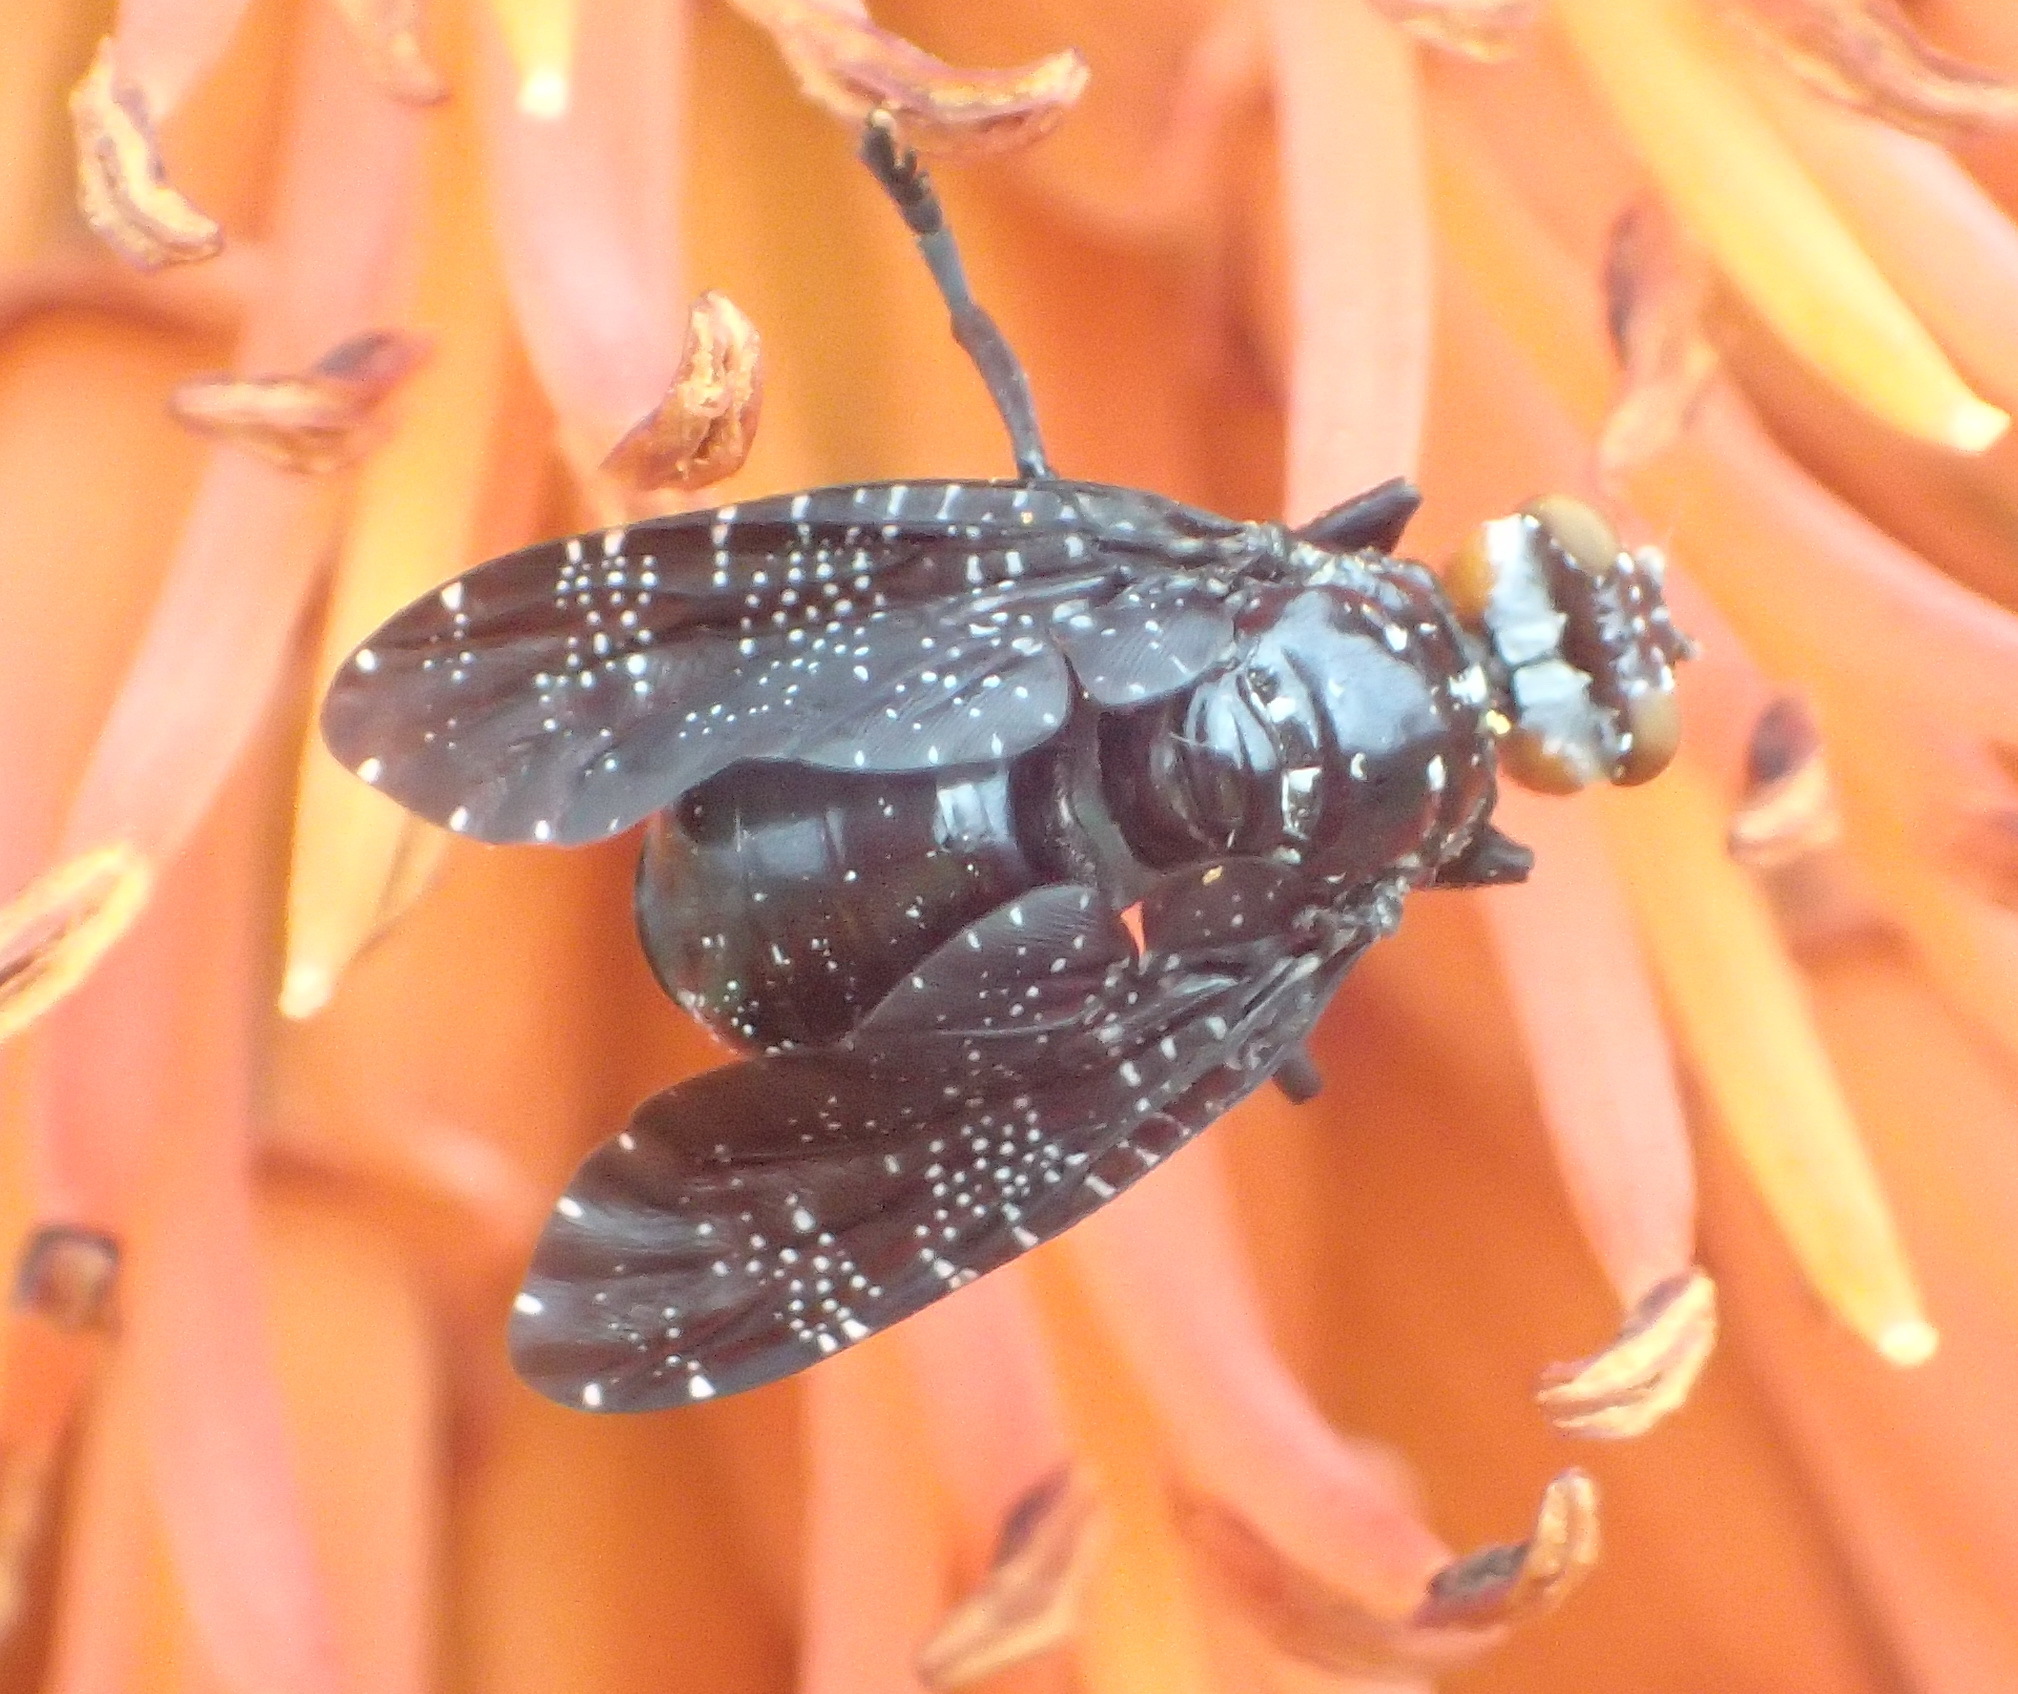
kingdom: Animalia
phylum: Arthropoda
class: Insecta
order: Diptera
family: Platystomatidae
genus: Palpomya
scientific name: Palpomya asphaltina
